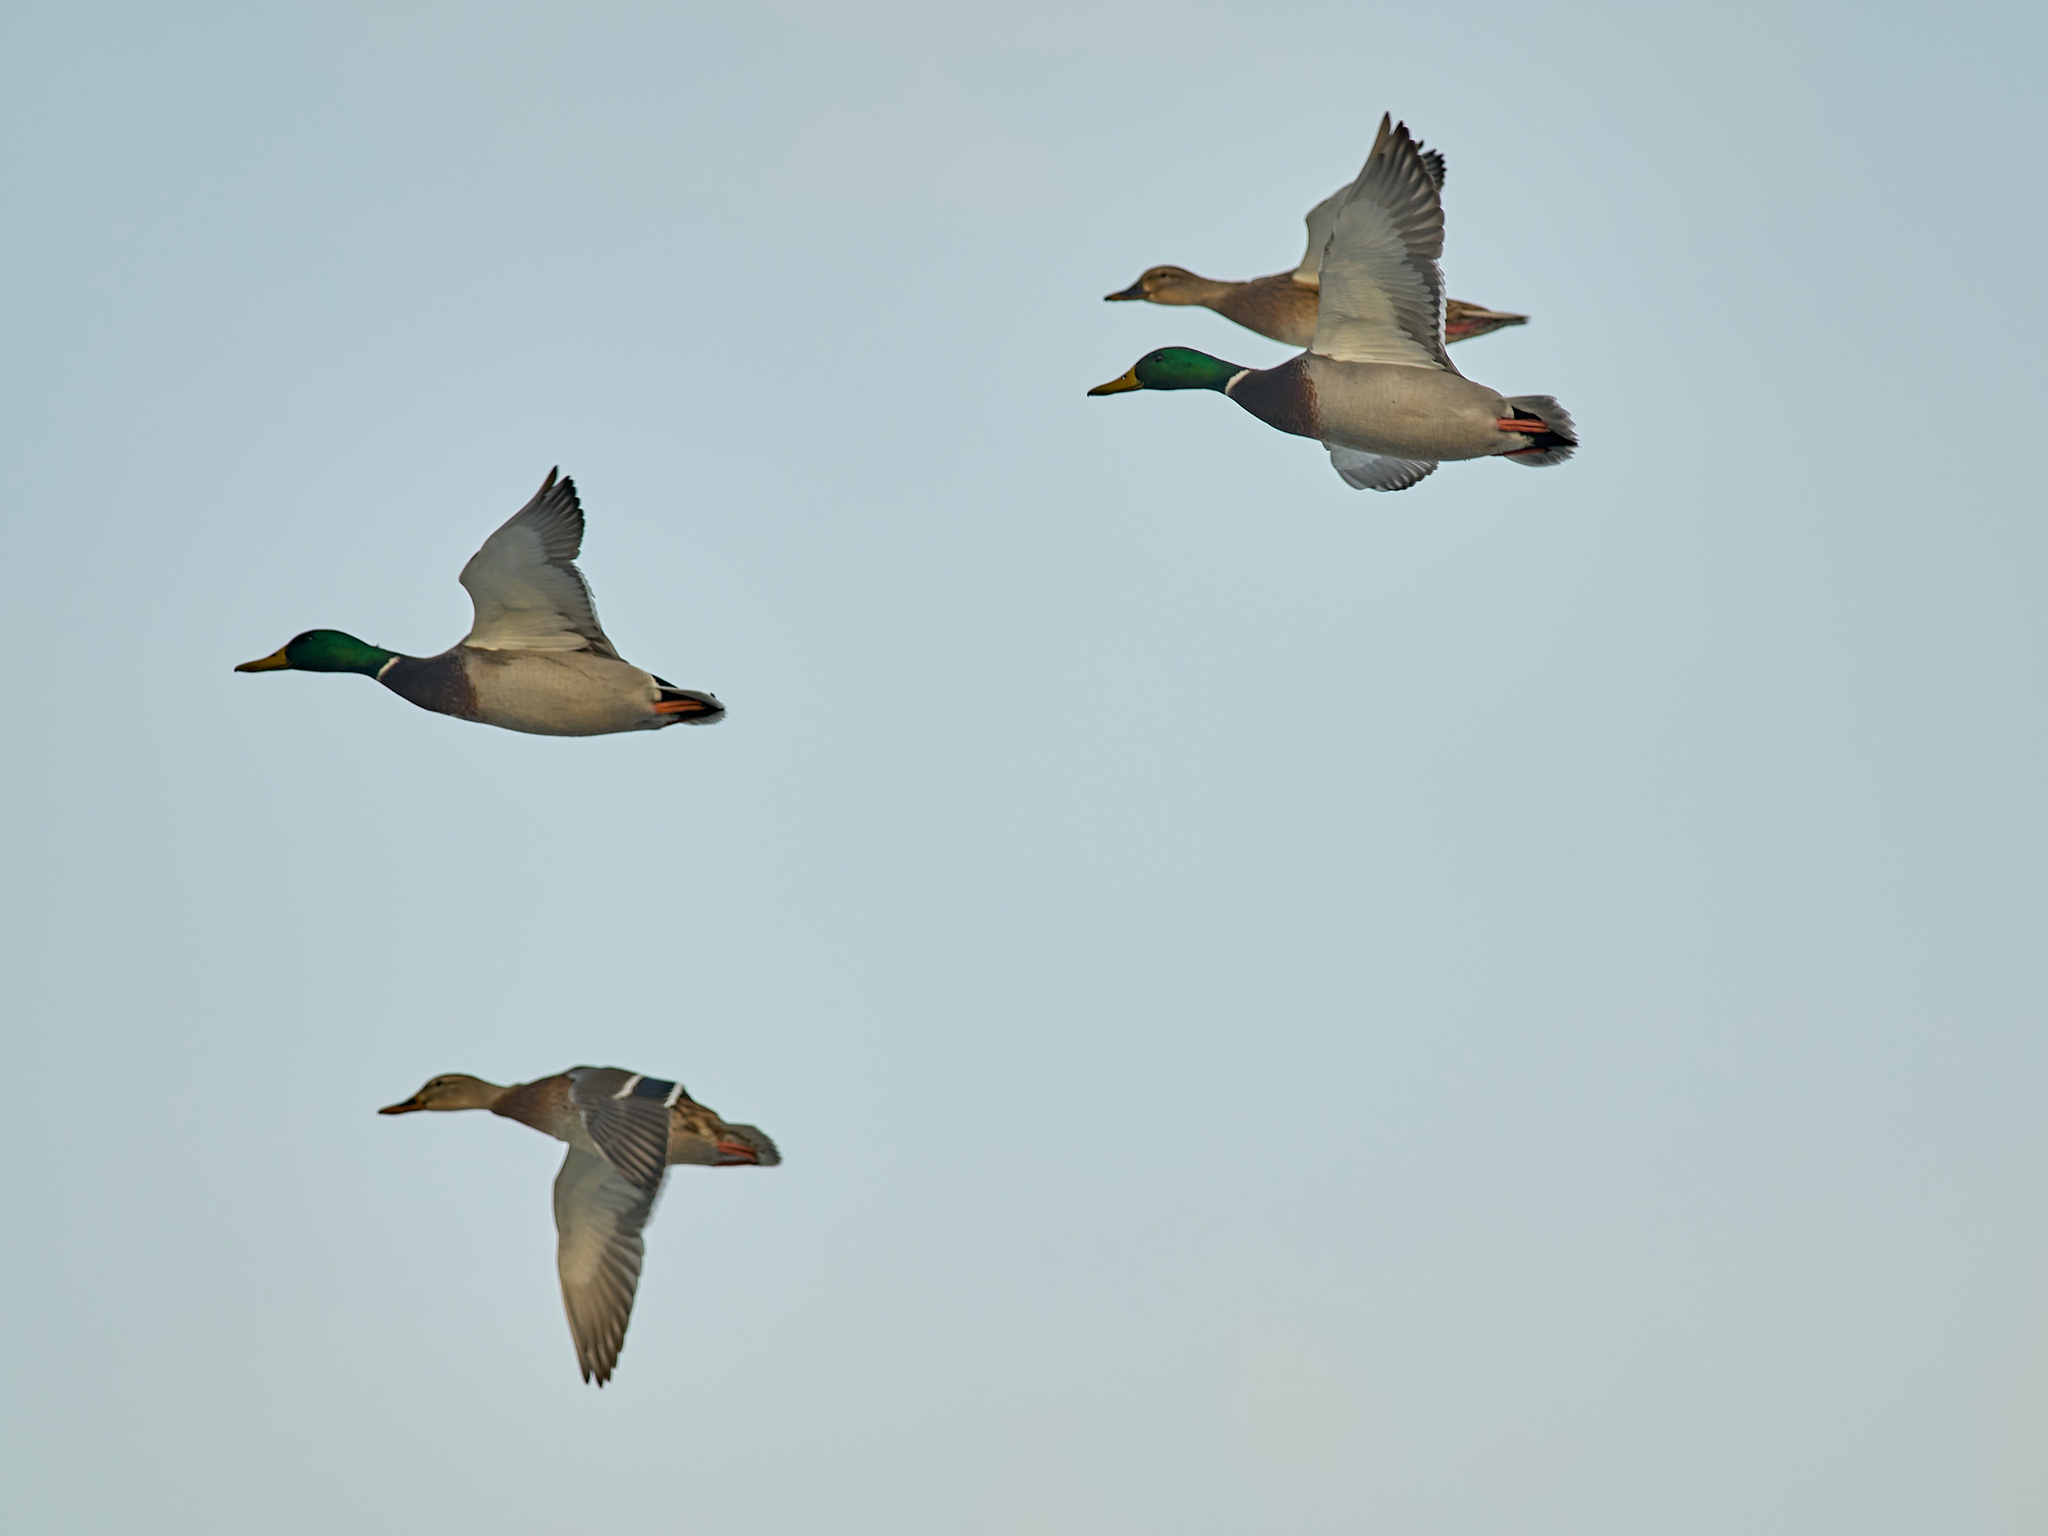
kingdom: Animalia
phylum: Chordata
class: Aves
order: Anseriformes
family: Anatidae
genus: Anas
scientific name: Anas platyrhynchos
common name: Mallard
